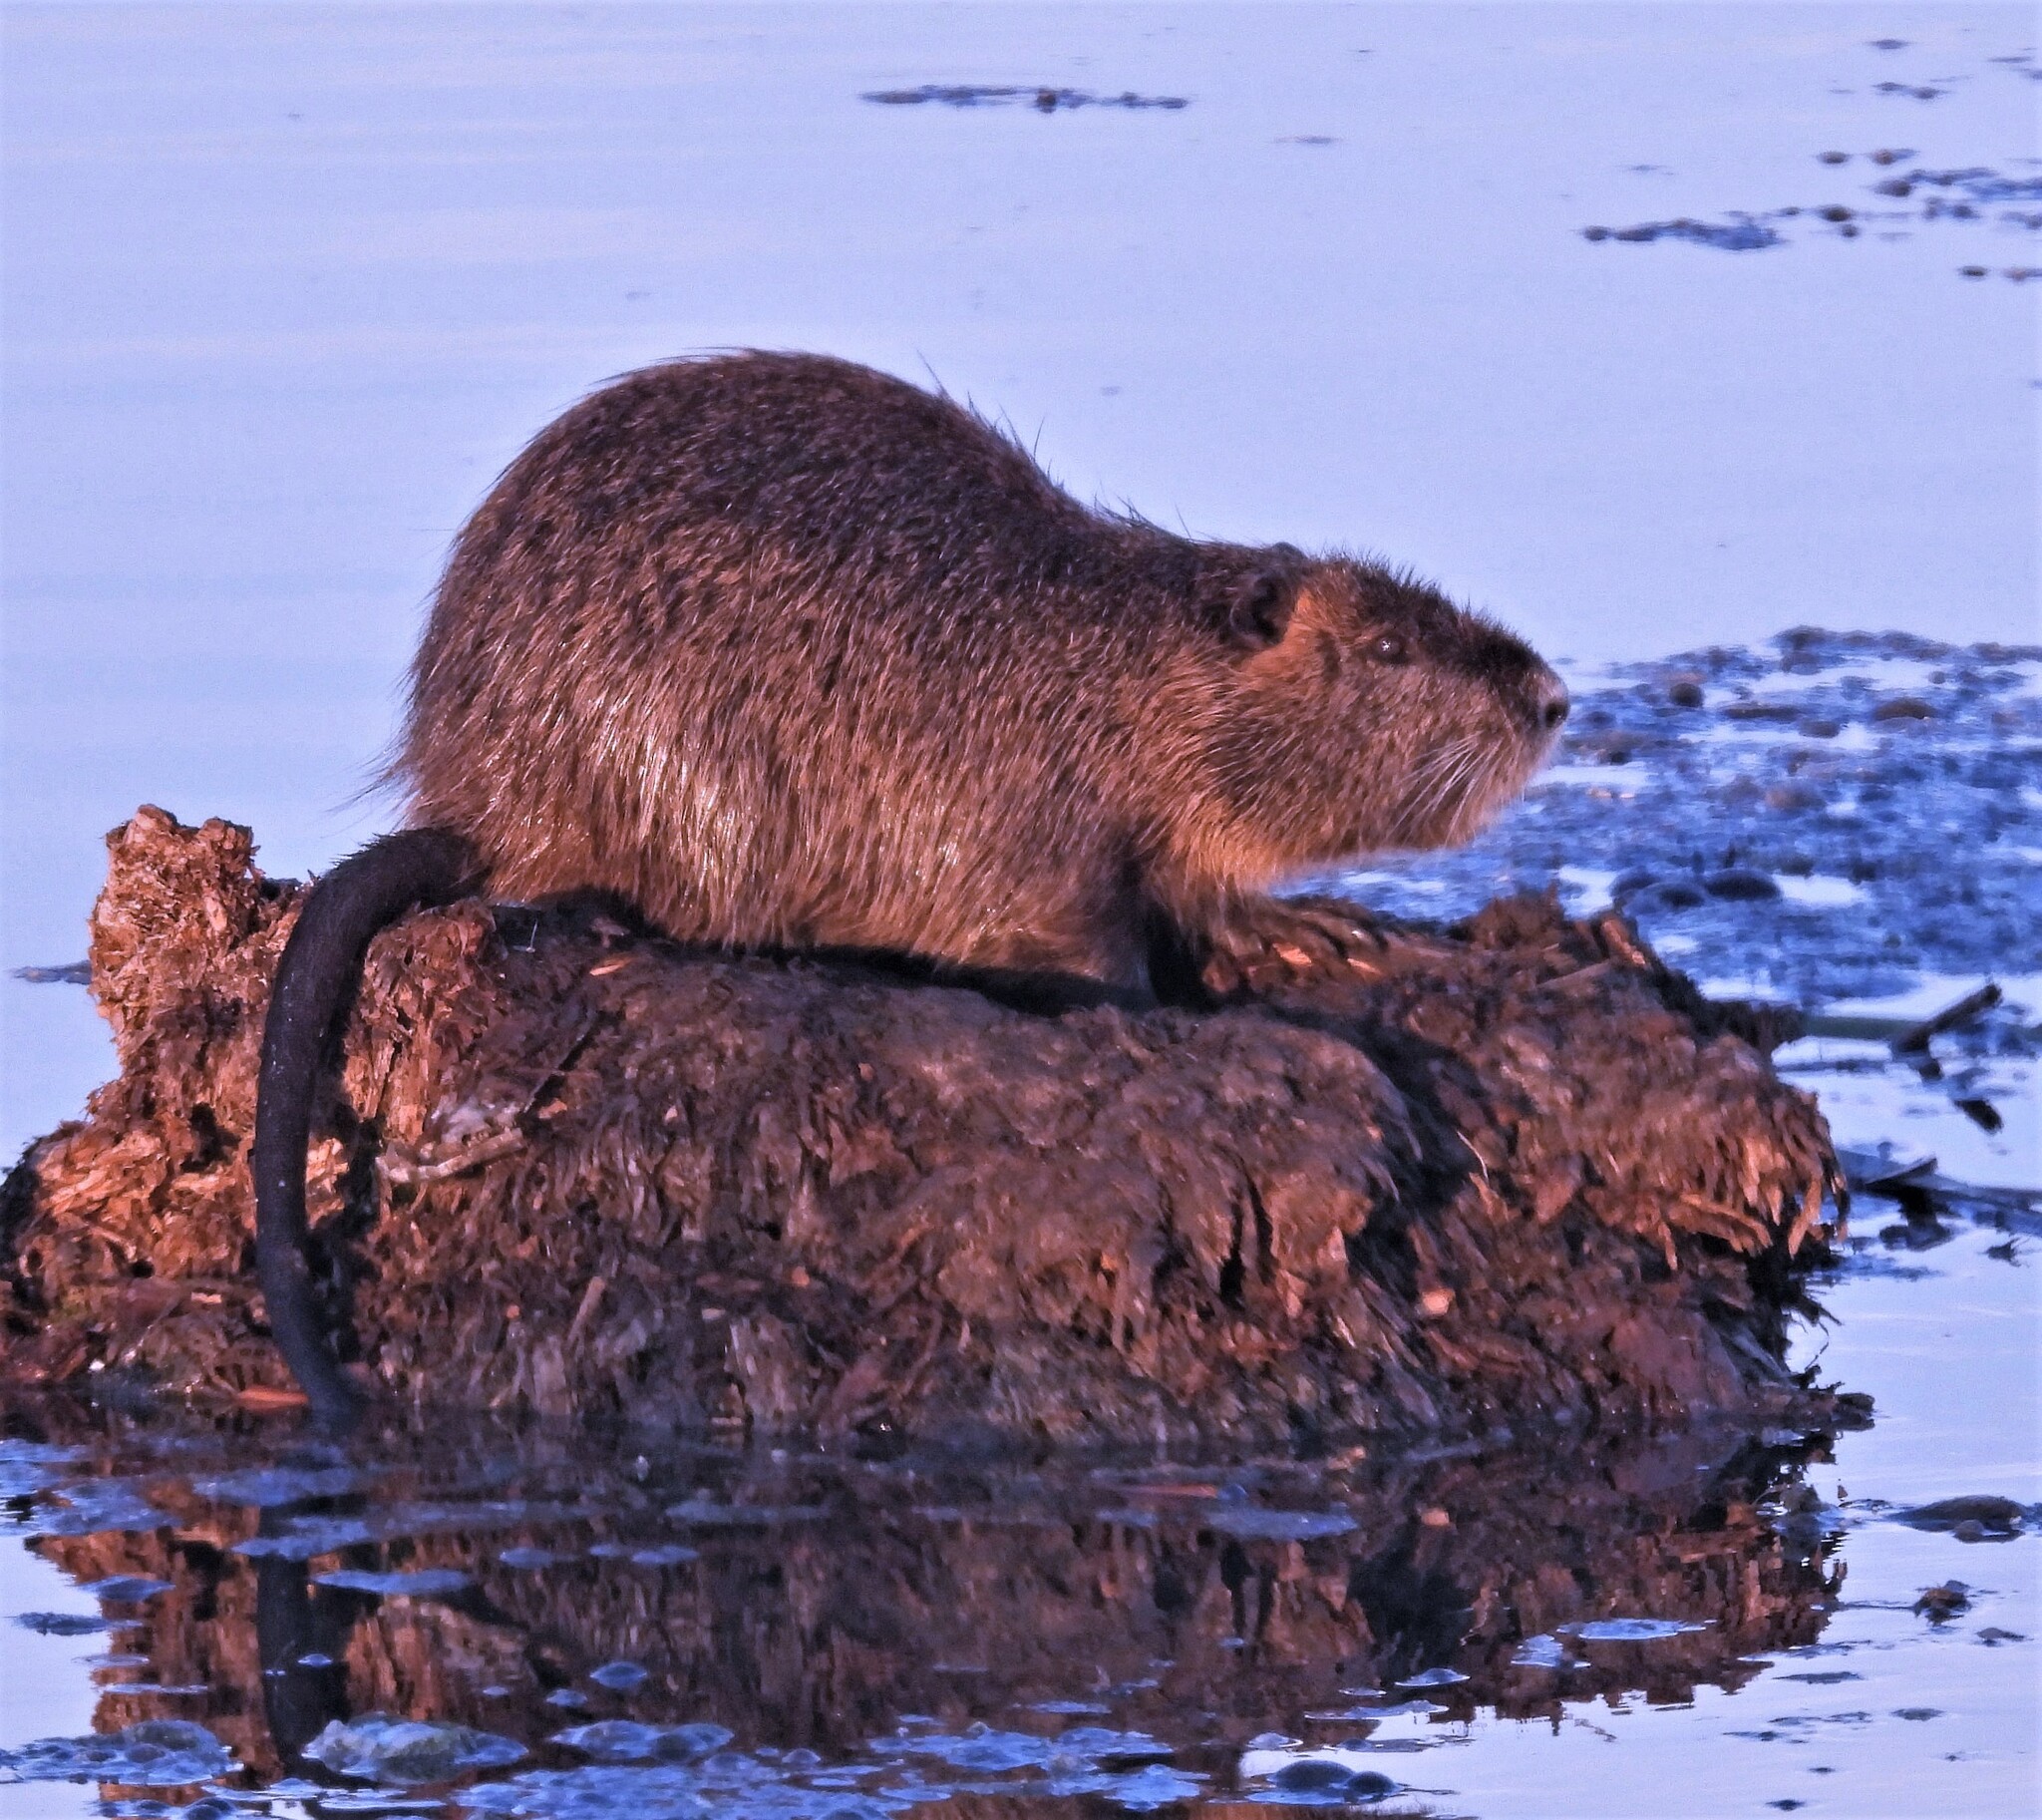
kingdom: Animalia
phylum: Chordata
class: Mammalia
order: Rodentia
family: Myocastoridae
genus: Myocastor
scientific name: Myocastor coypus
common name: Coypu
